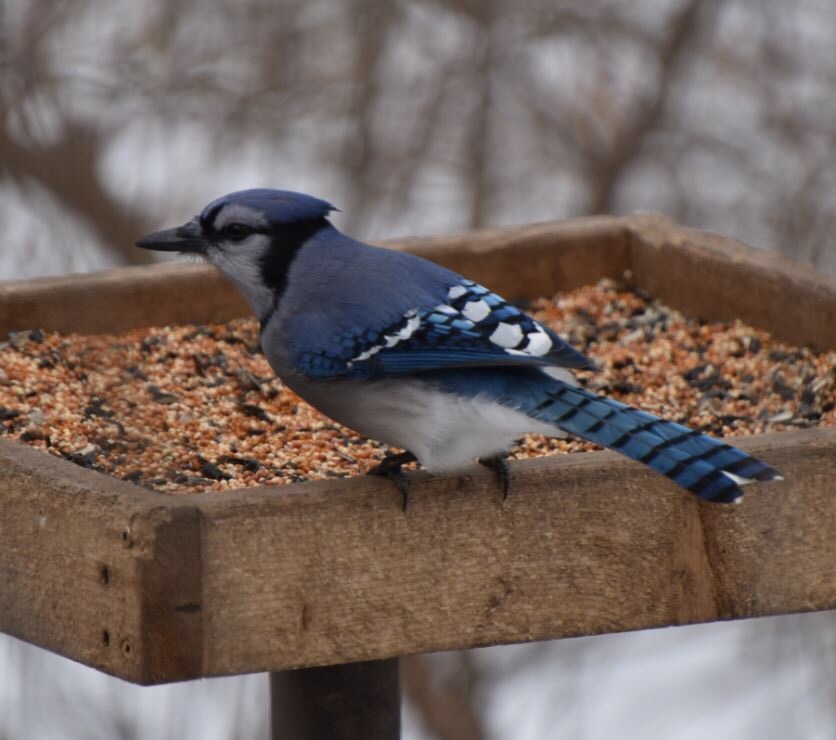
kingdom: Animalia
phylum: Chordata
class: Aves
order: Passeriformes
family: Corvidae
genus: Cyanocitta
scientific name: Cyanocitta cristata
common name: Blue jay
